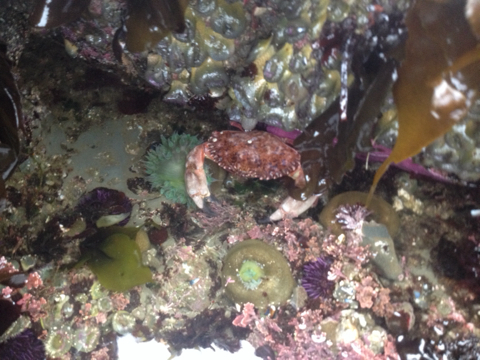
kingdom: Animalia
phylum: Arthropoda
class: Malacostraca
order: Decapoda
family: Cancridae
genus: Romaleon
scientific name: Romaleon antennarium
